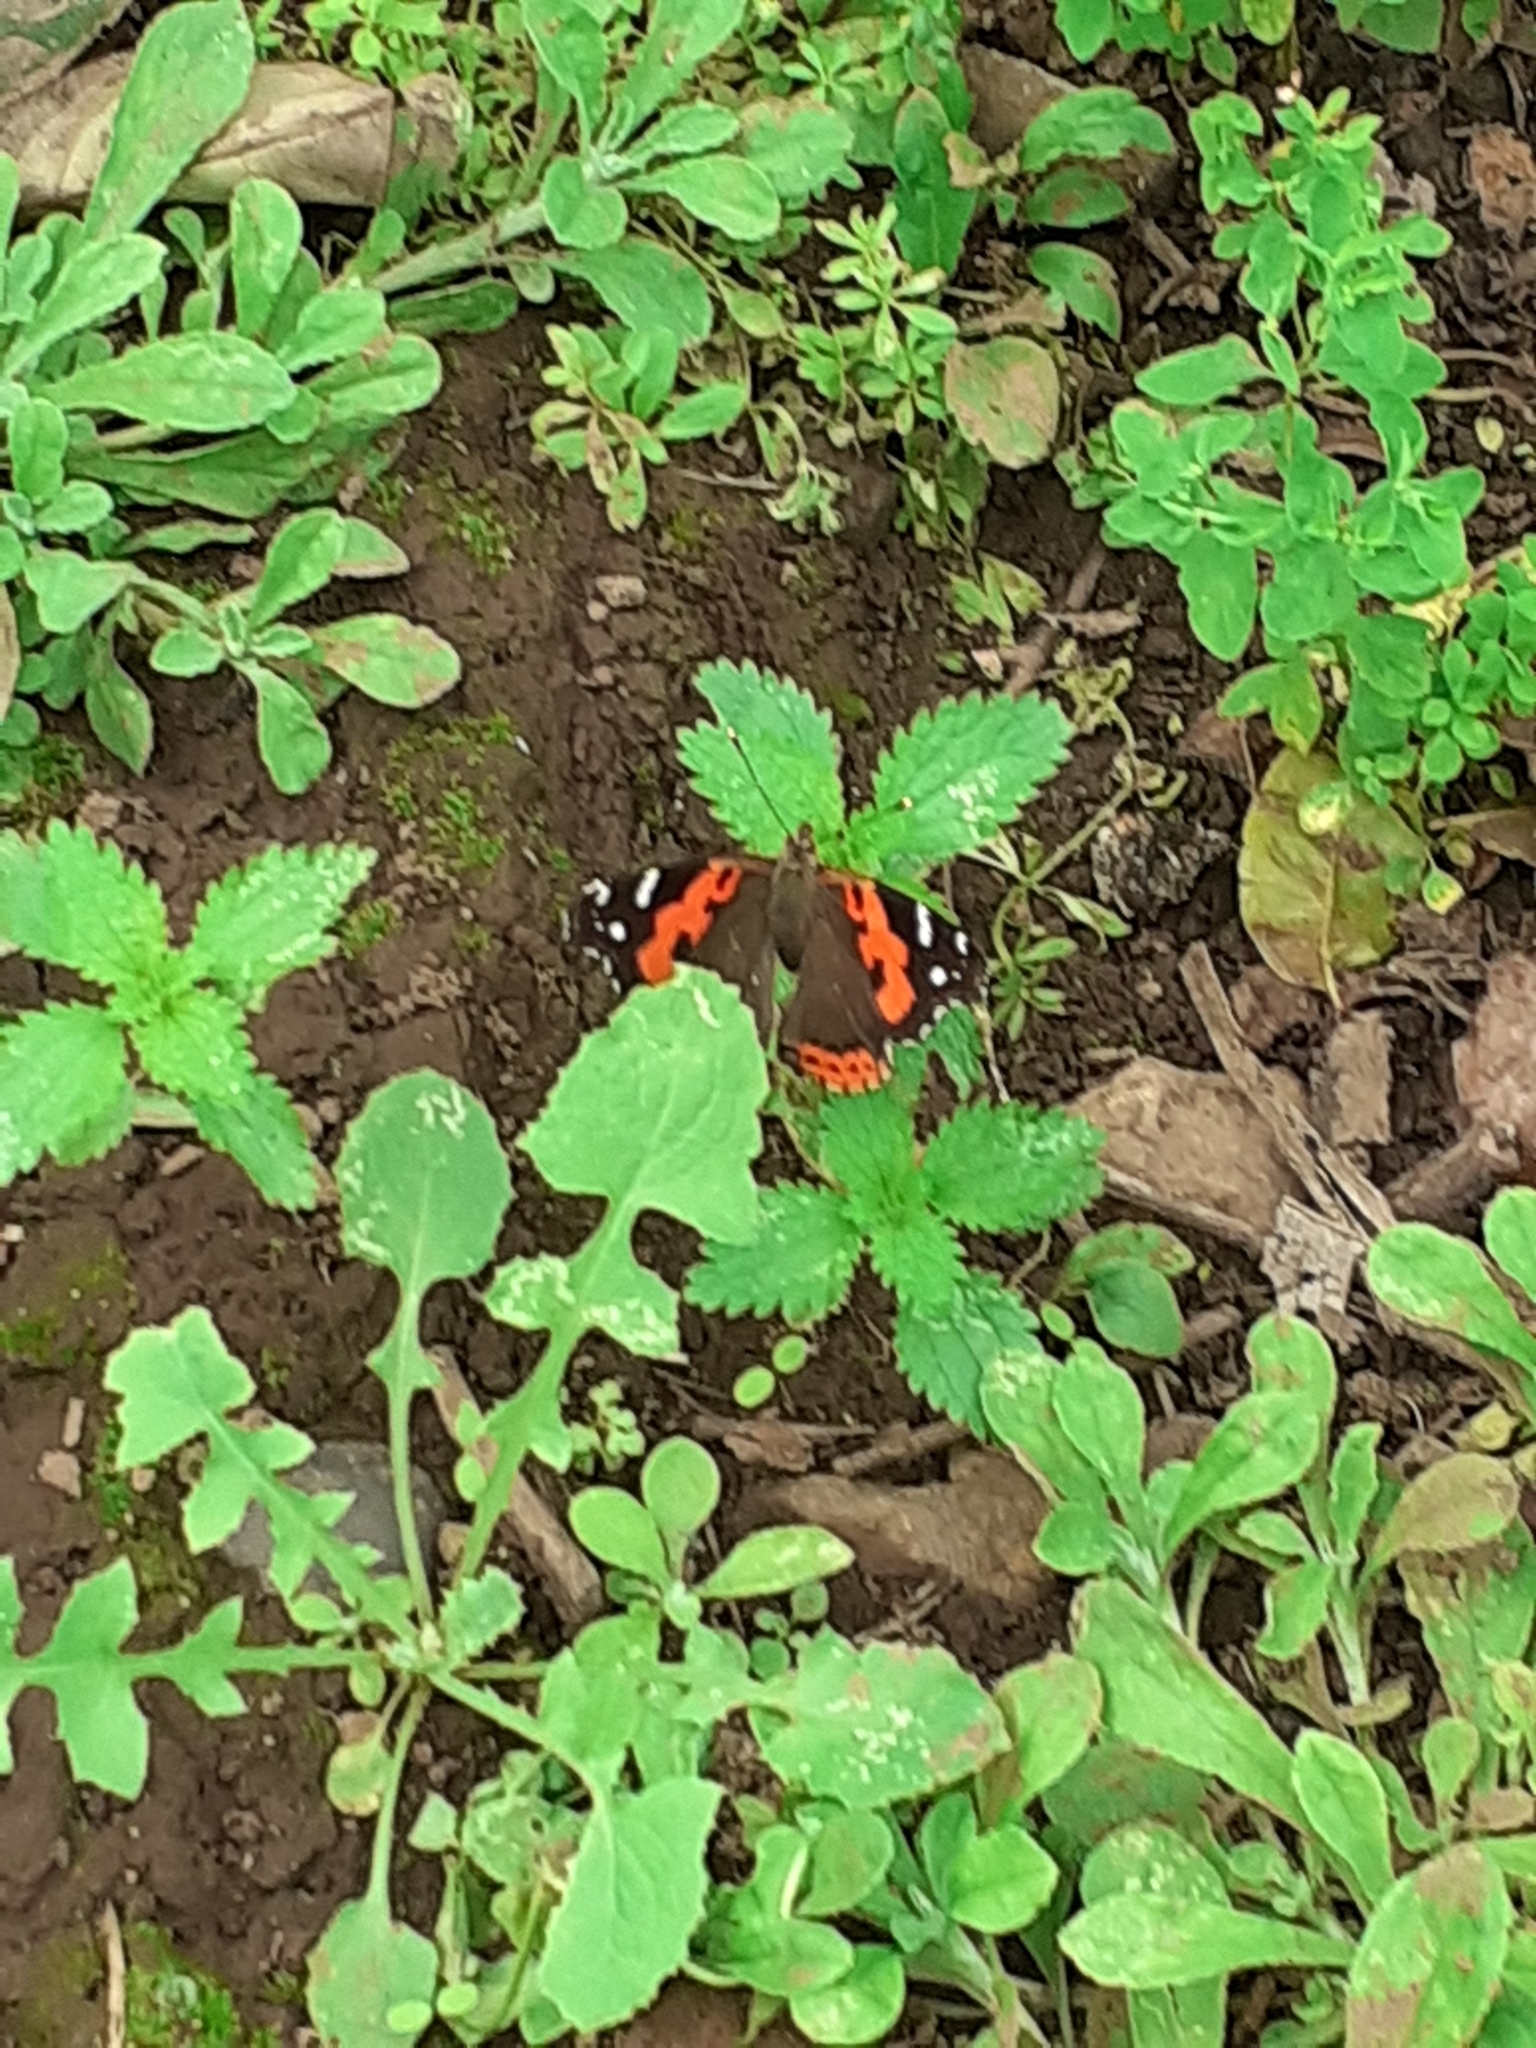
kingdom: Animalia
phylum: Arthropoda
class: Insecta
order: Lepidoptera
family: Nymphalidae
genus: Vanessa
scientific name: Vanessa vulcania
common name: Canary red admiral
